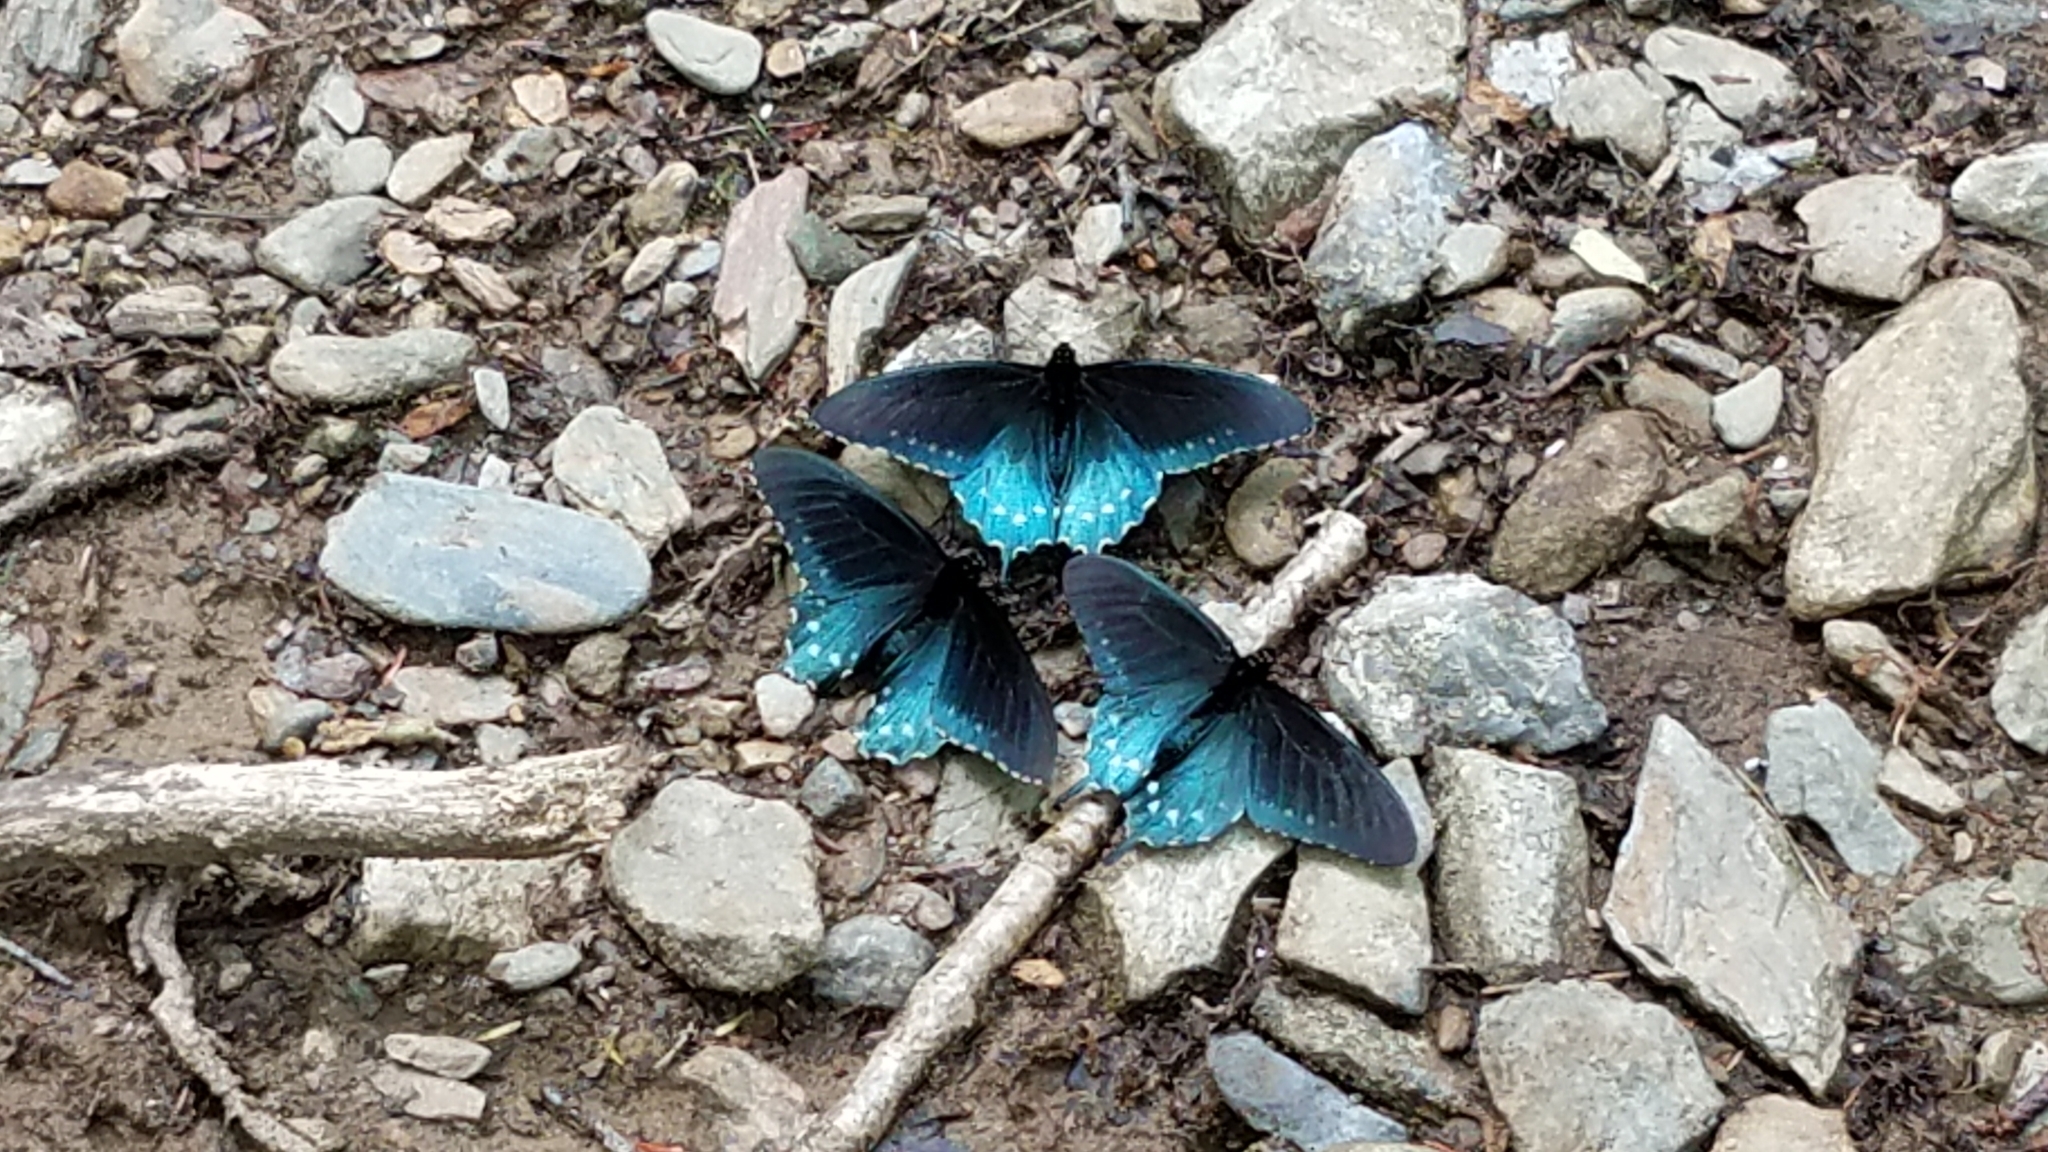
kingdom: Animalia
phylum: Arthropoda
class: Insecta
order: Lepidoptera
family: Papilionidae
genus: Battus
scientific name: Battus philenor
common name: Pipevine swallowtail
